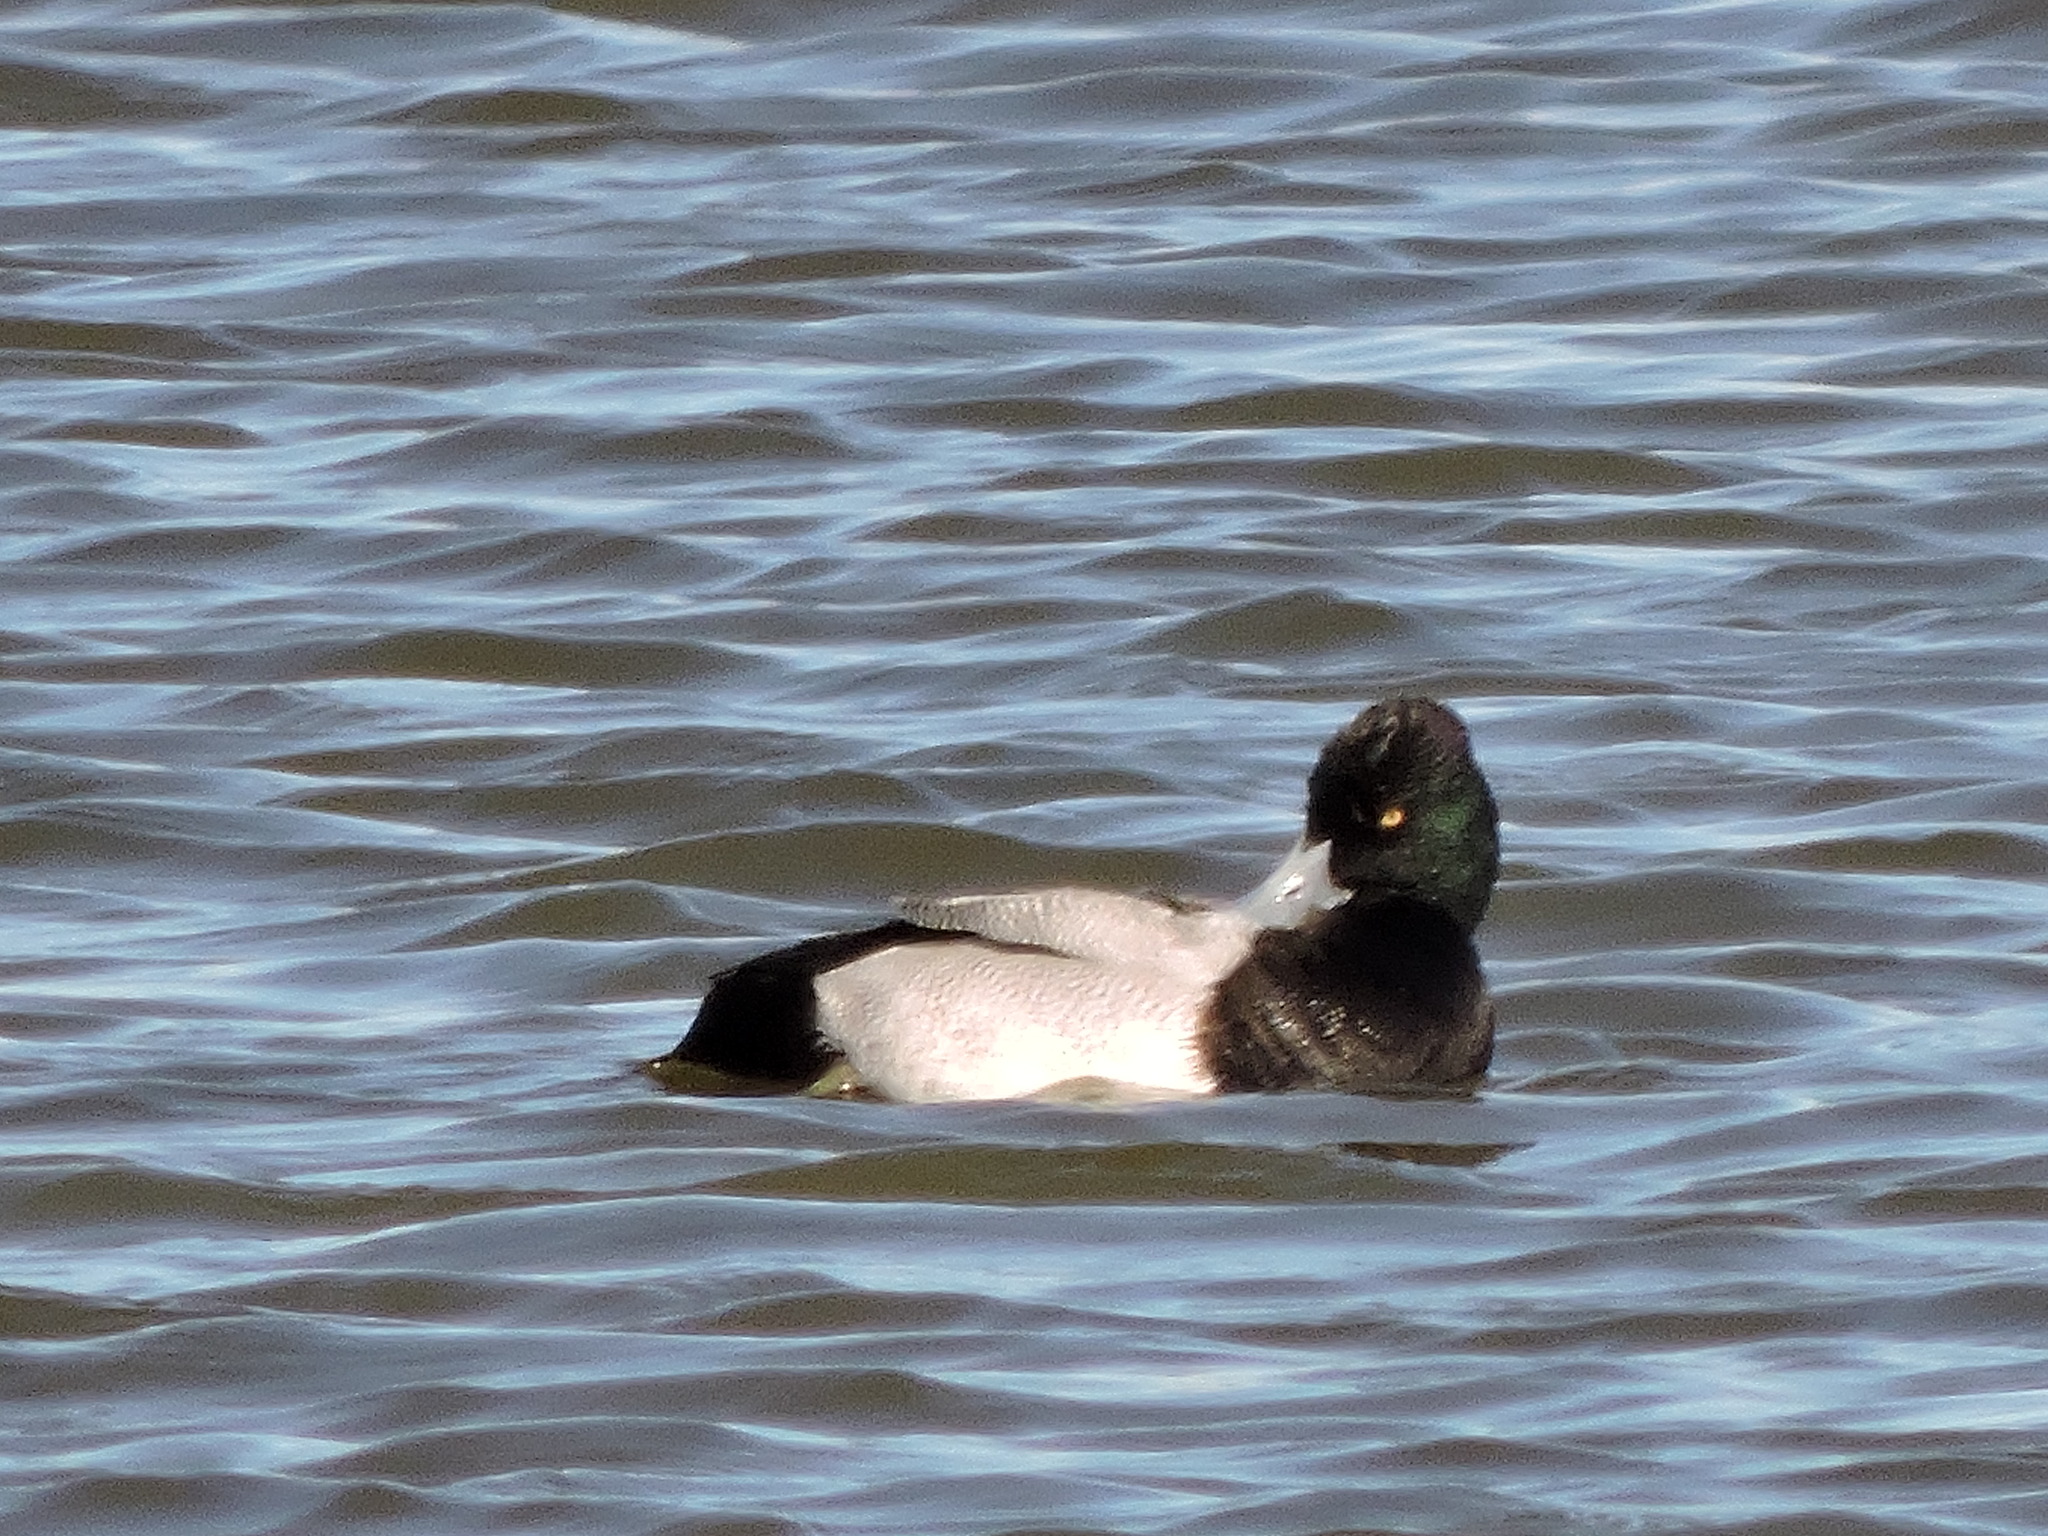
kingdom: Animalia
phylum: Chordata
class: Aves
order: Anseriformes
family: Anatidae
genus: Aythya
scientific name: Aythya affinis
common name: Lesser scaup
